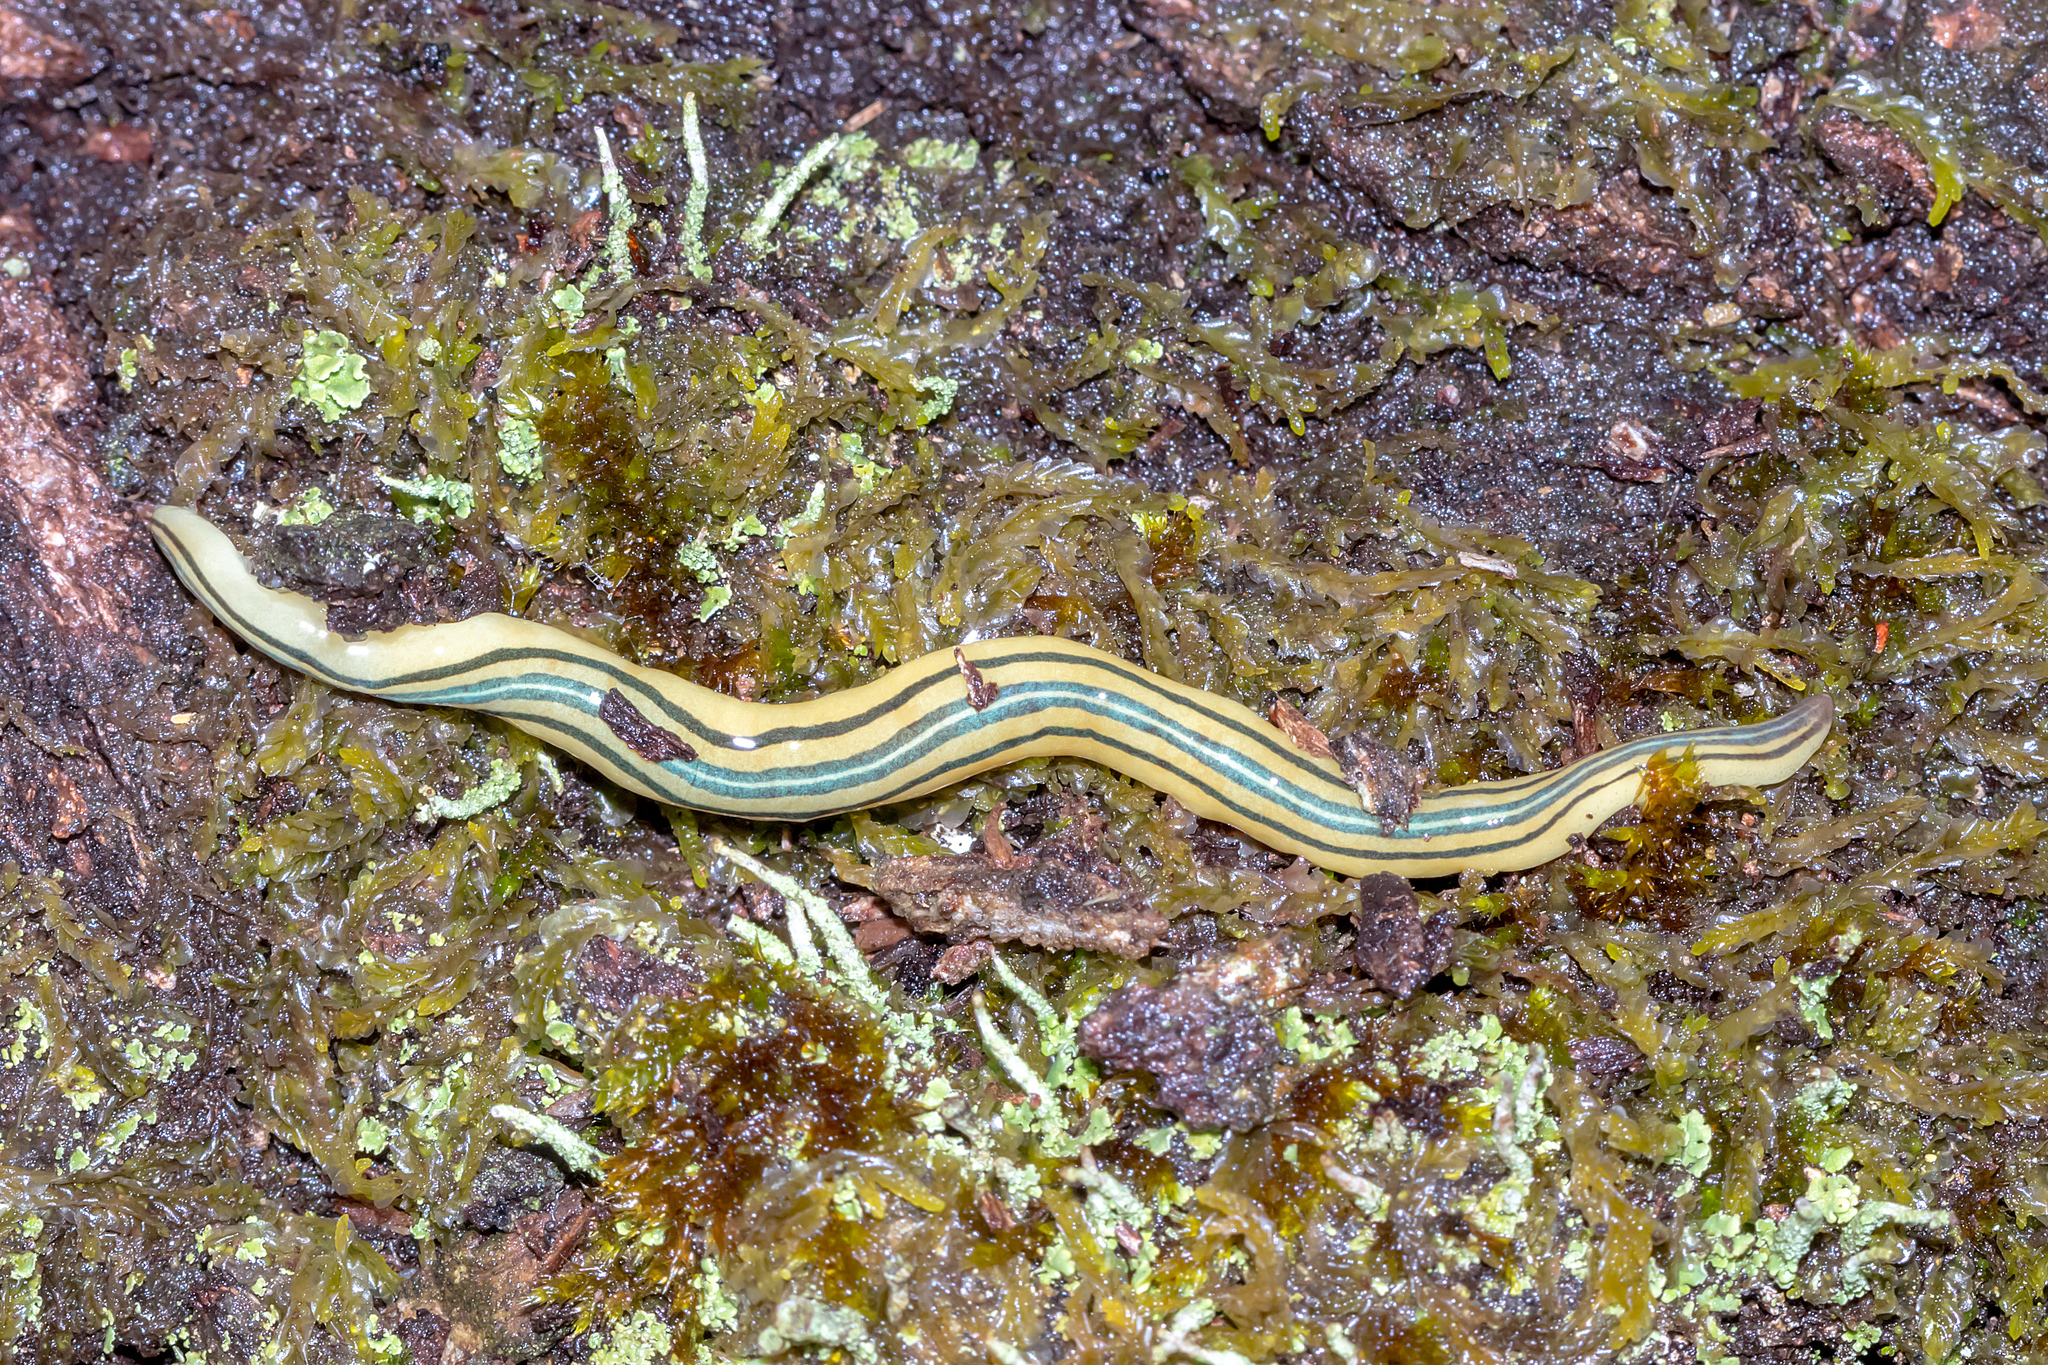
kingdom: Animalia
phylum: Platyhelminthes
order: Tricladida
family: Geoplanidae
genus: Caenoplana
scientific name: Caenoplana hoggii
